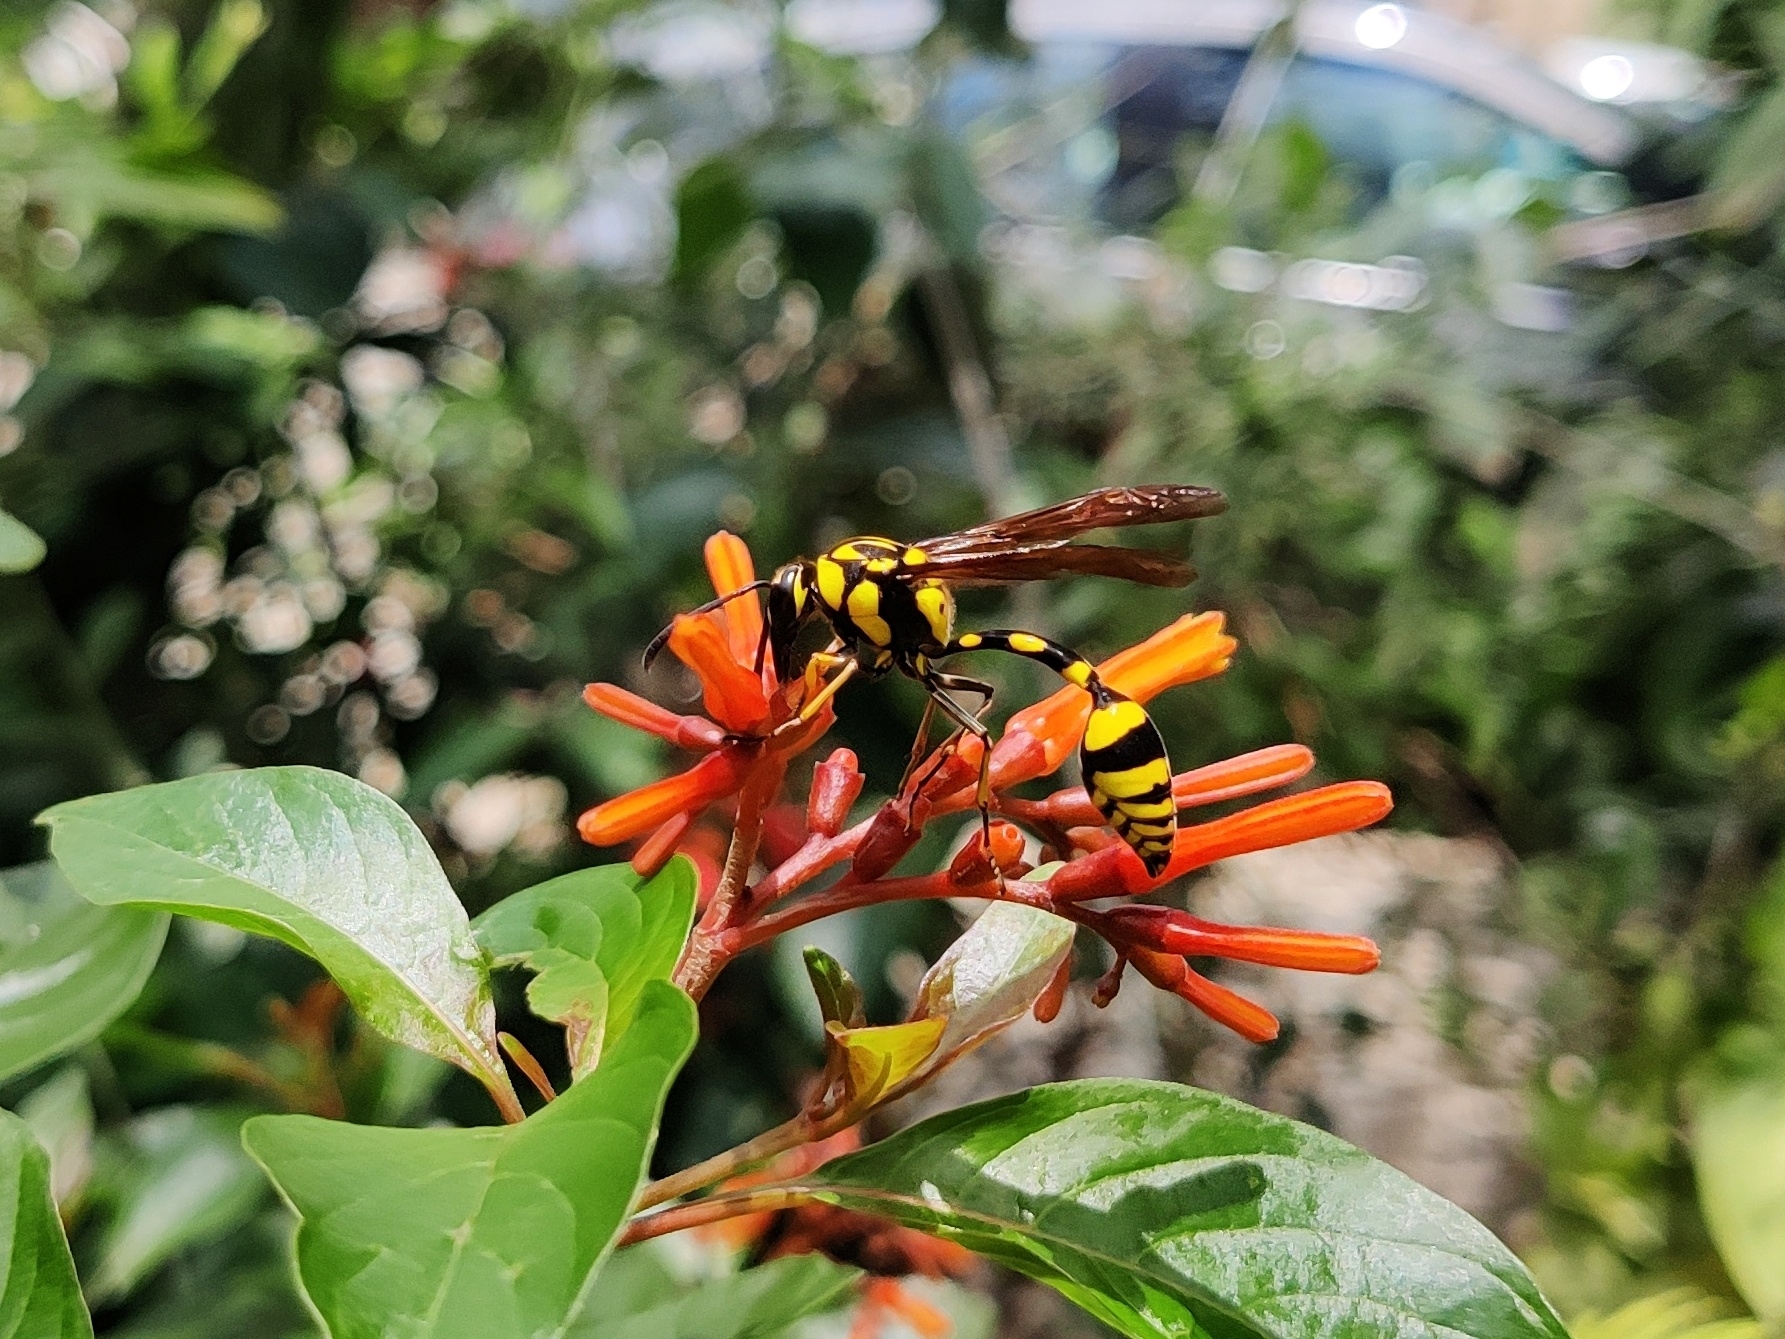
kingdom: Animalia
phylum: Arthropoda
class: Insecta
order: Hymenoptera
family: Eumenidae
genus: Phimenes
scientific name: Phimenes flavopictus
